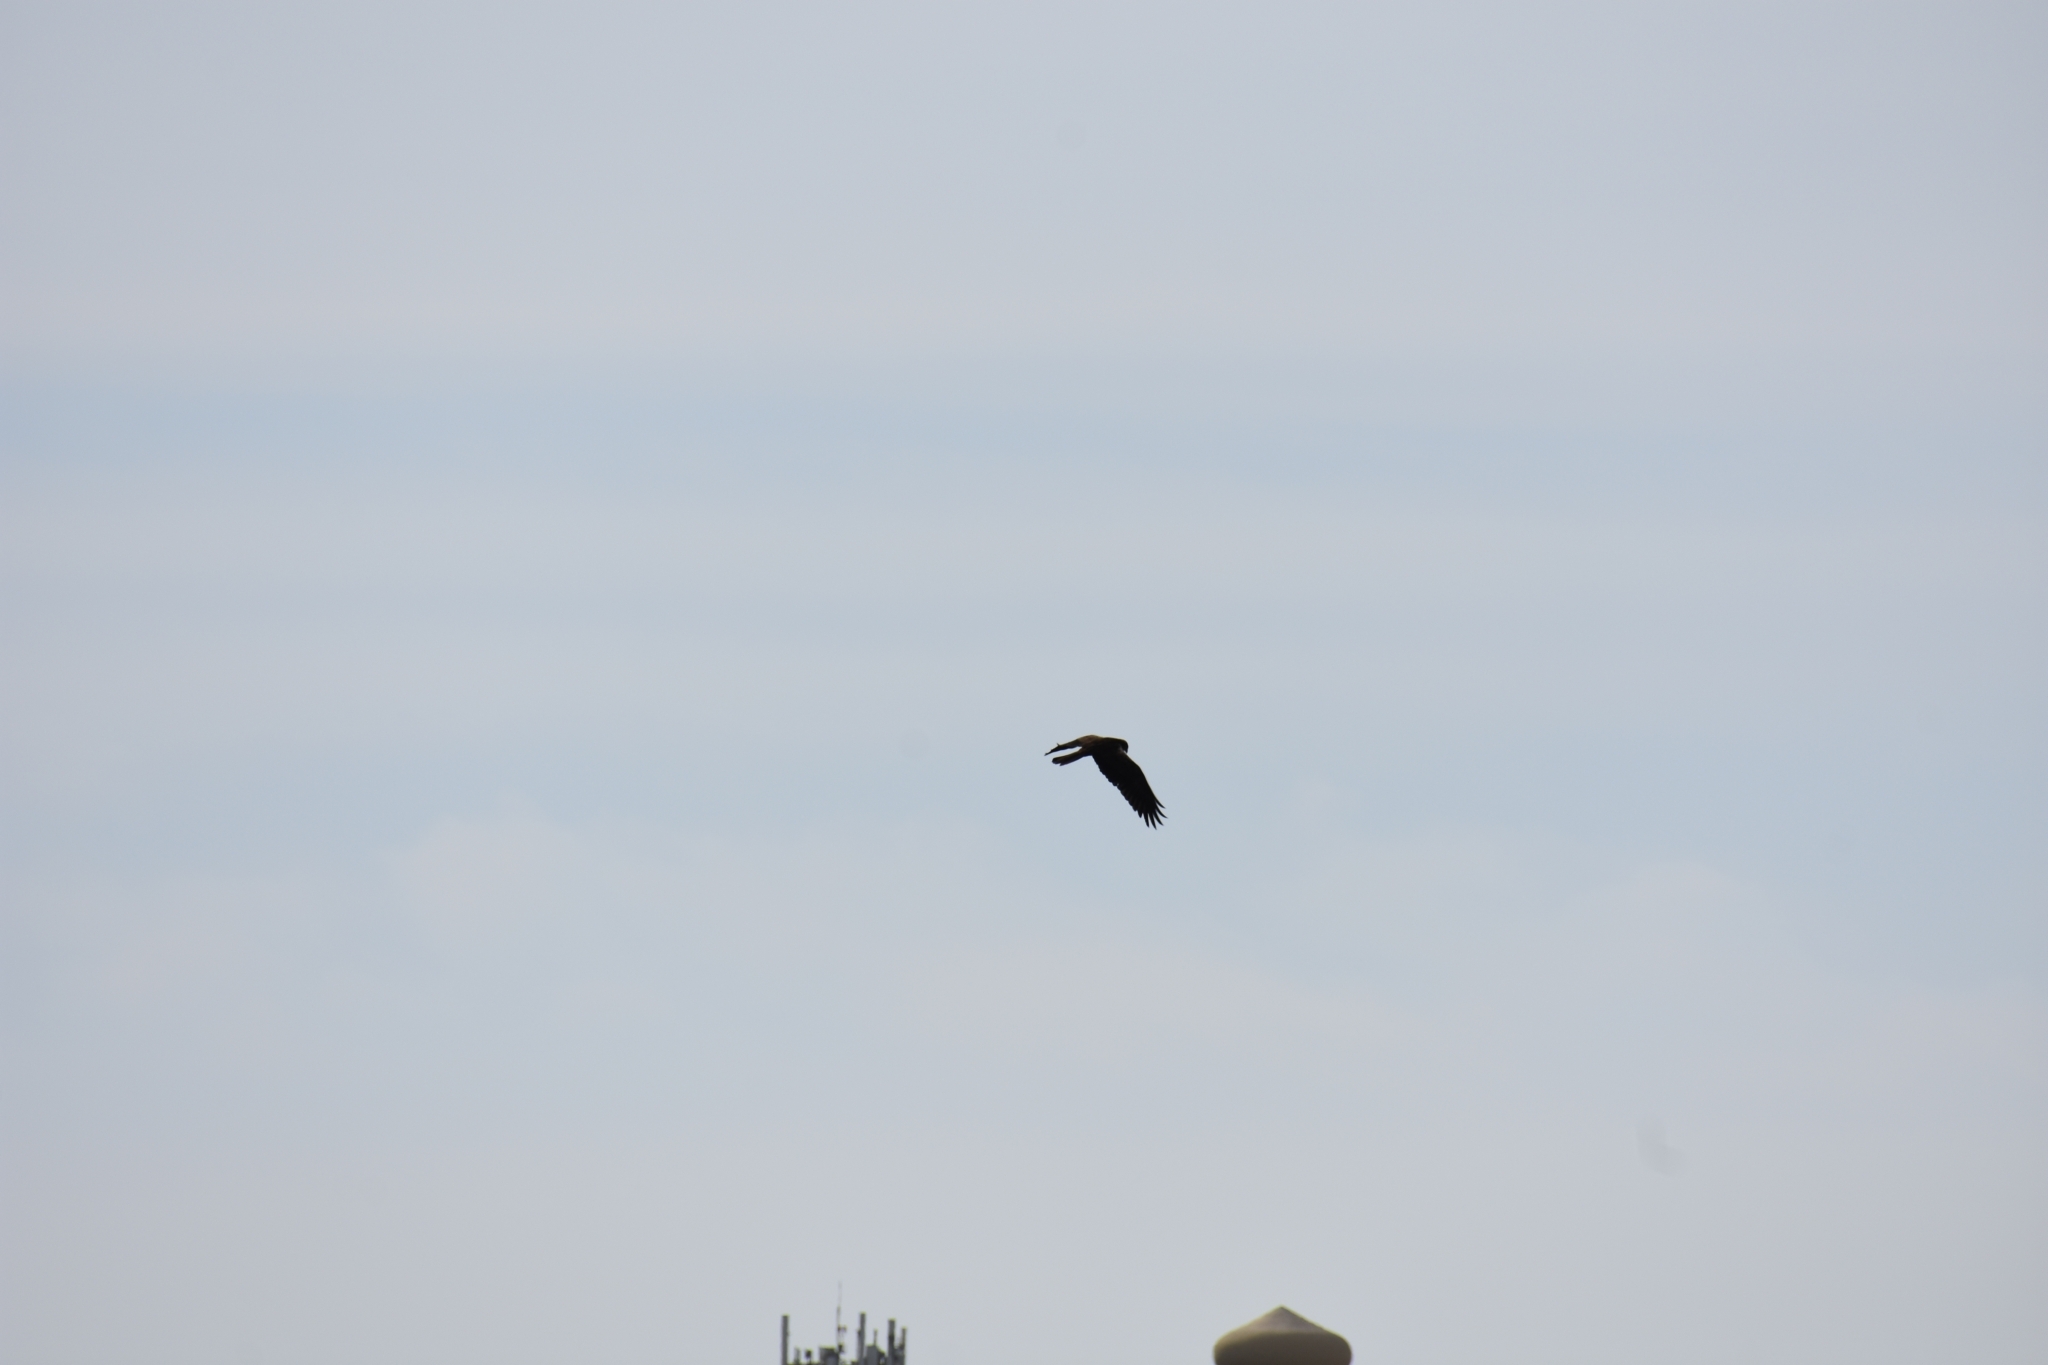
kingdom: Animalia
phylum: Chordata
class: Aves
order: Accipitriformes
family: Accipitridae
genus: Circus
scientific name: Circus aeruginosus
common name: Western marsh harrier
